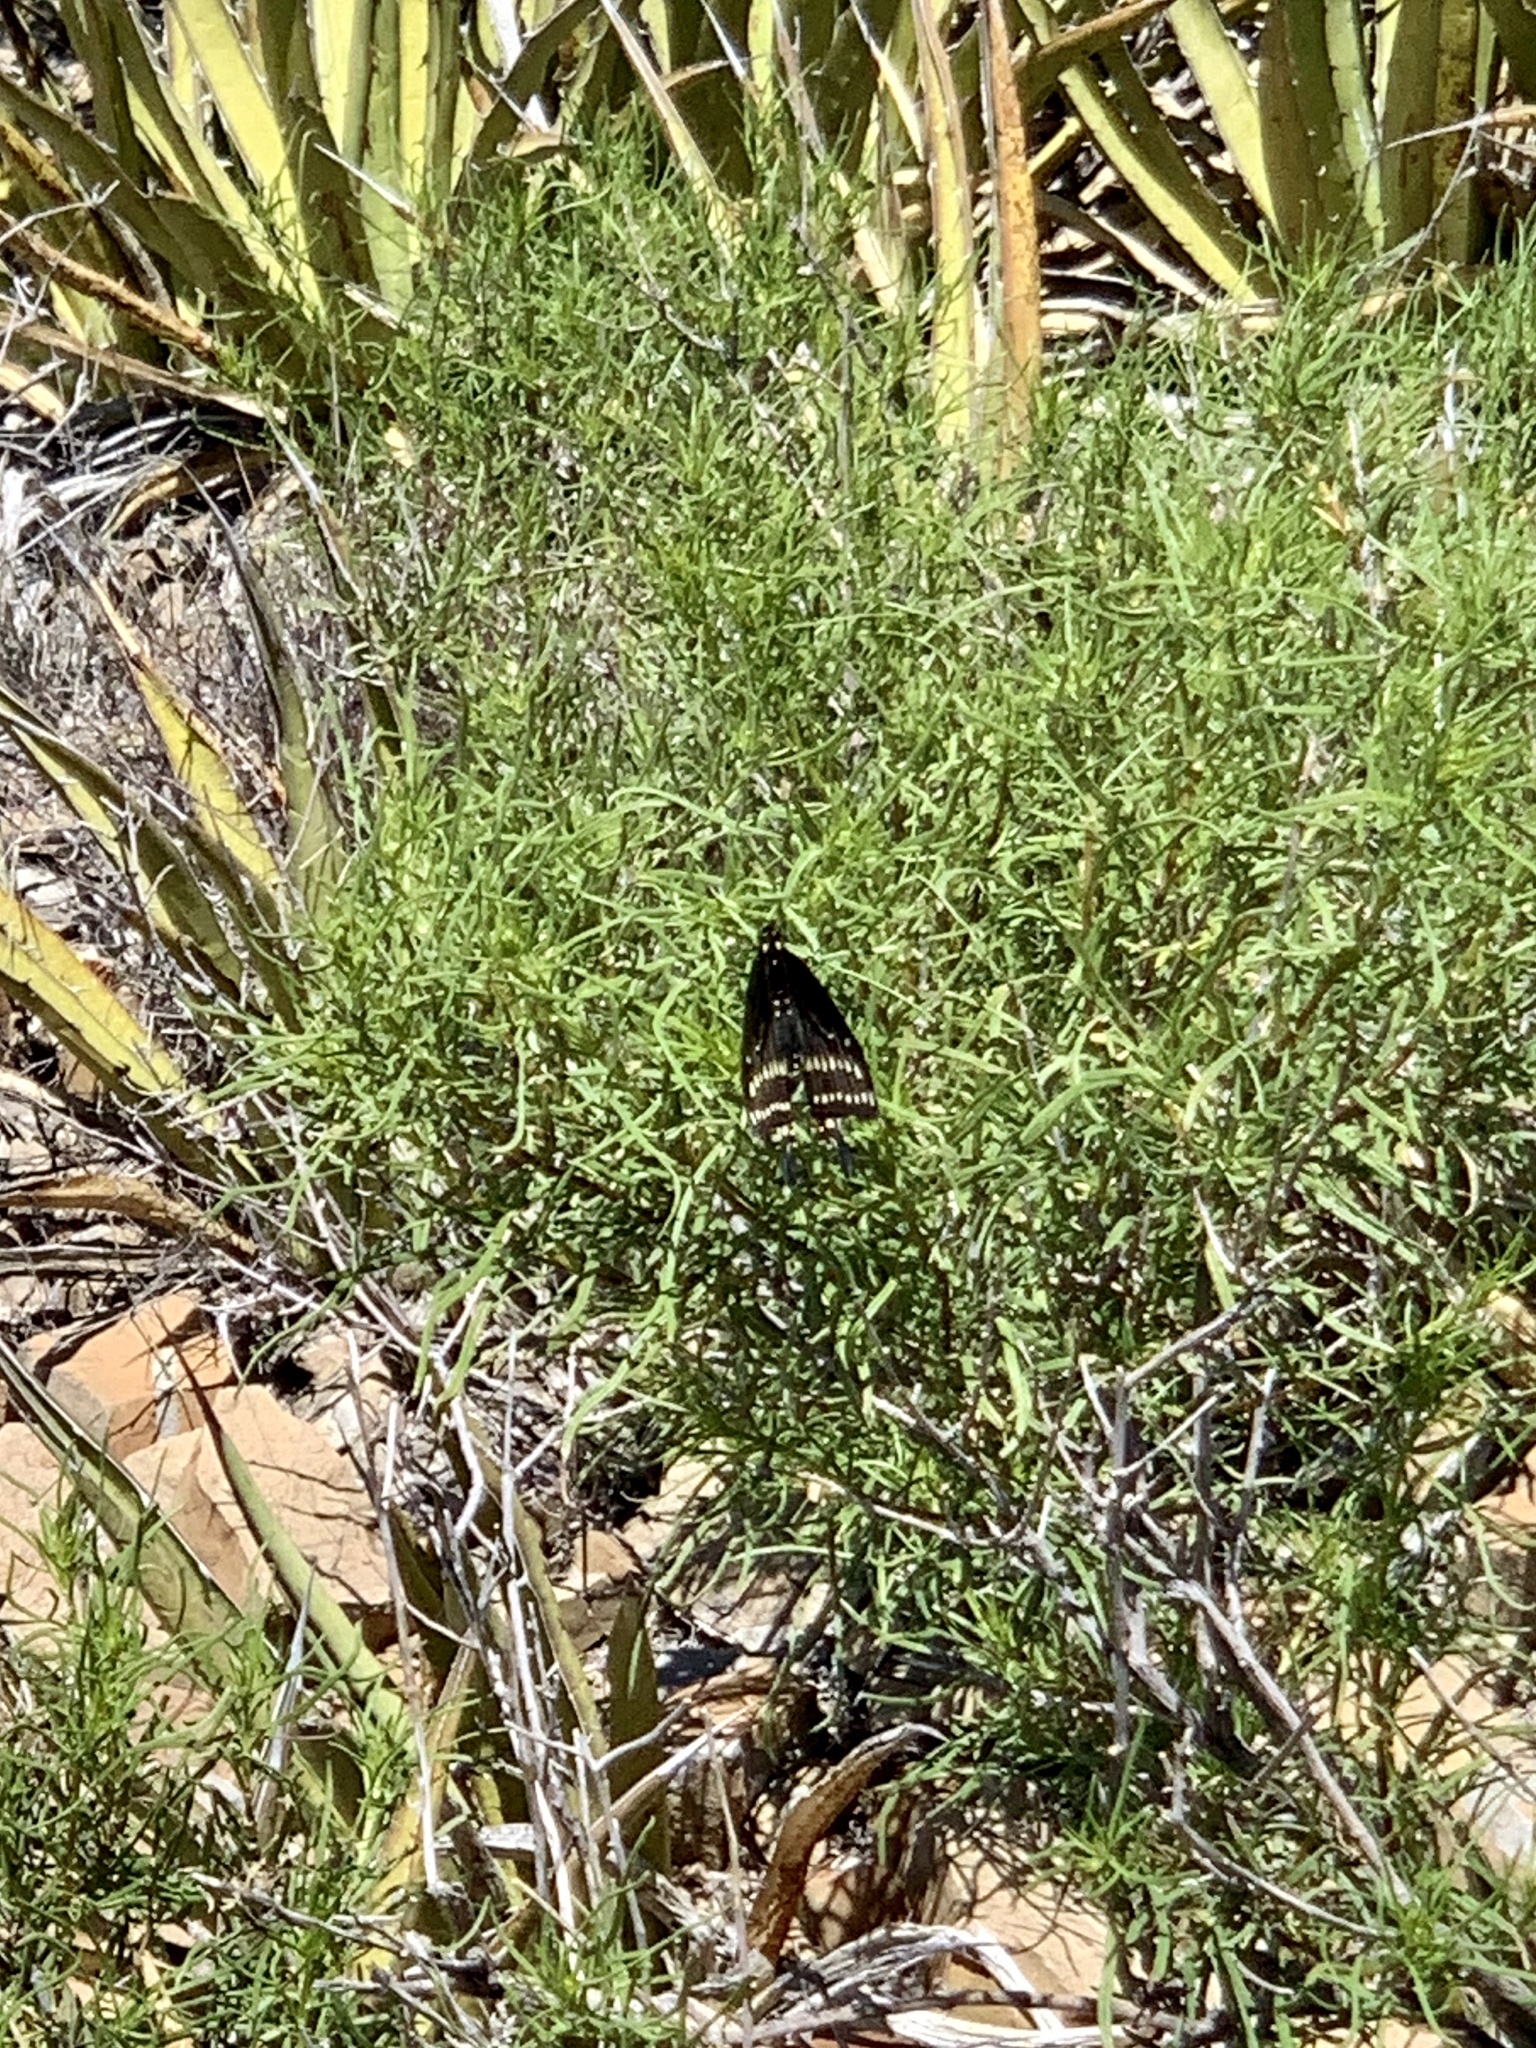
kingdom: Animalia
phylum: Arthropoda
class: Insecta
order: Lepidoptera
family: Papilionidae
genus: Papilio
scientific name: Papilio polyxenes
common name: Black swallowtail
